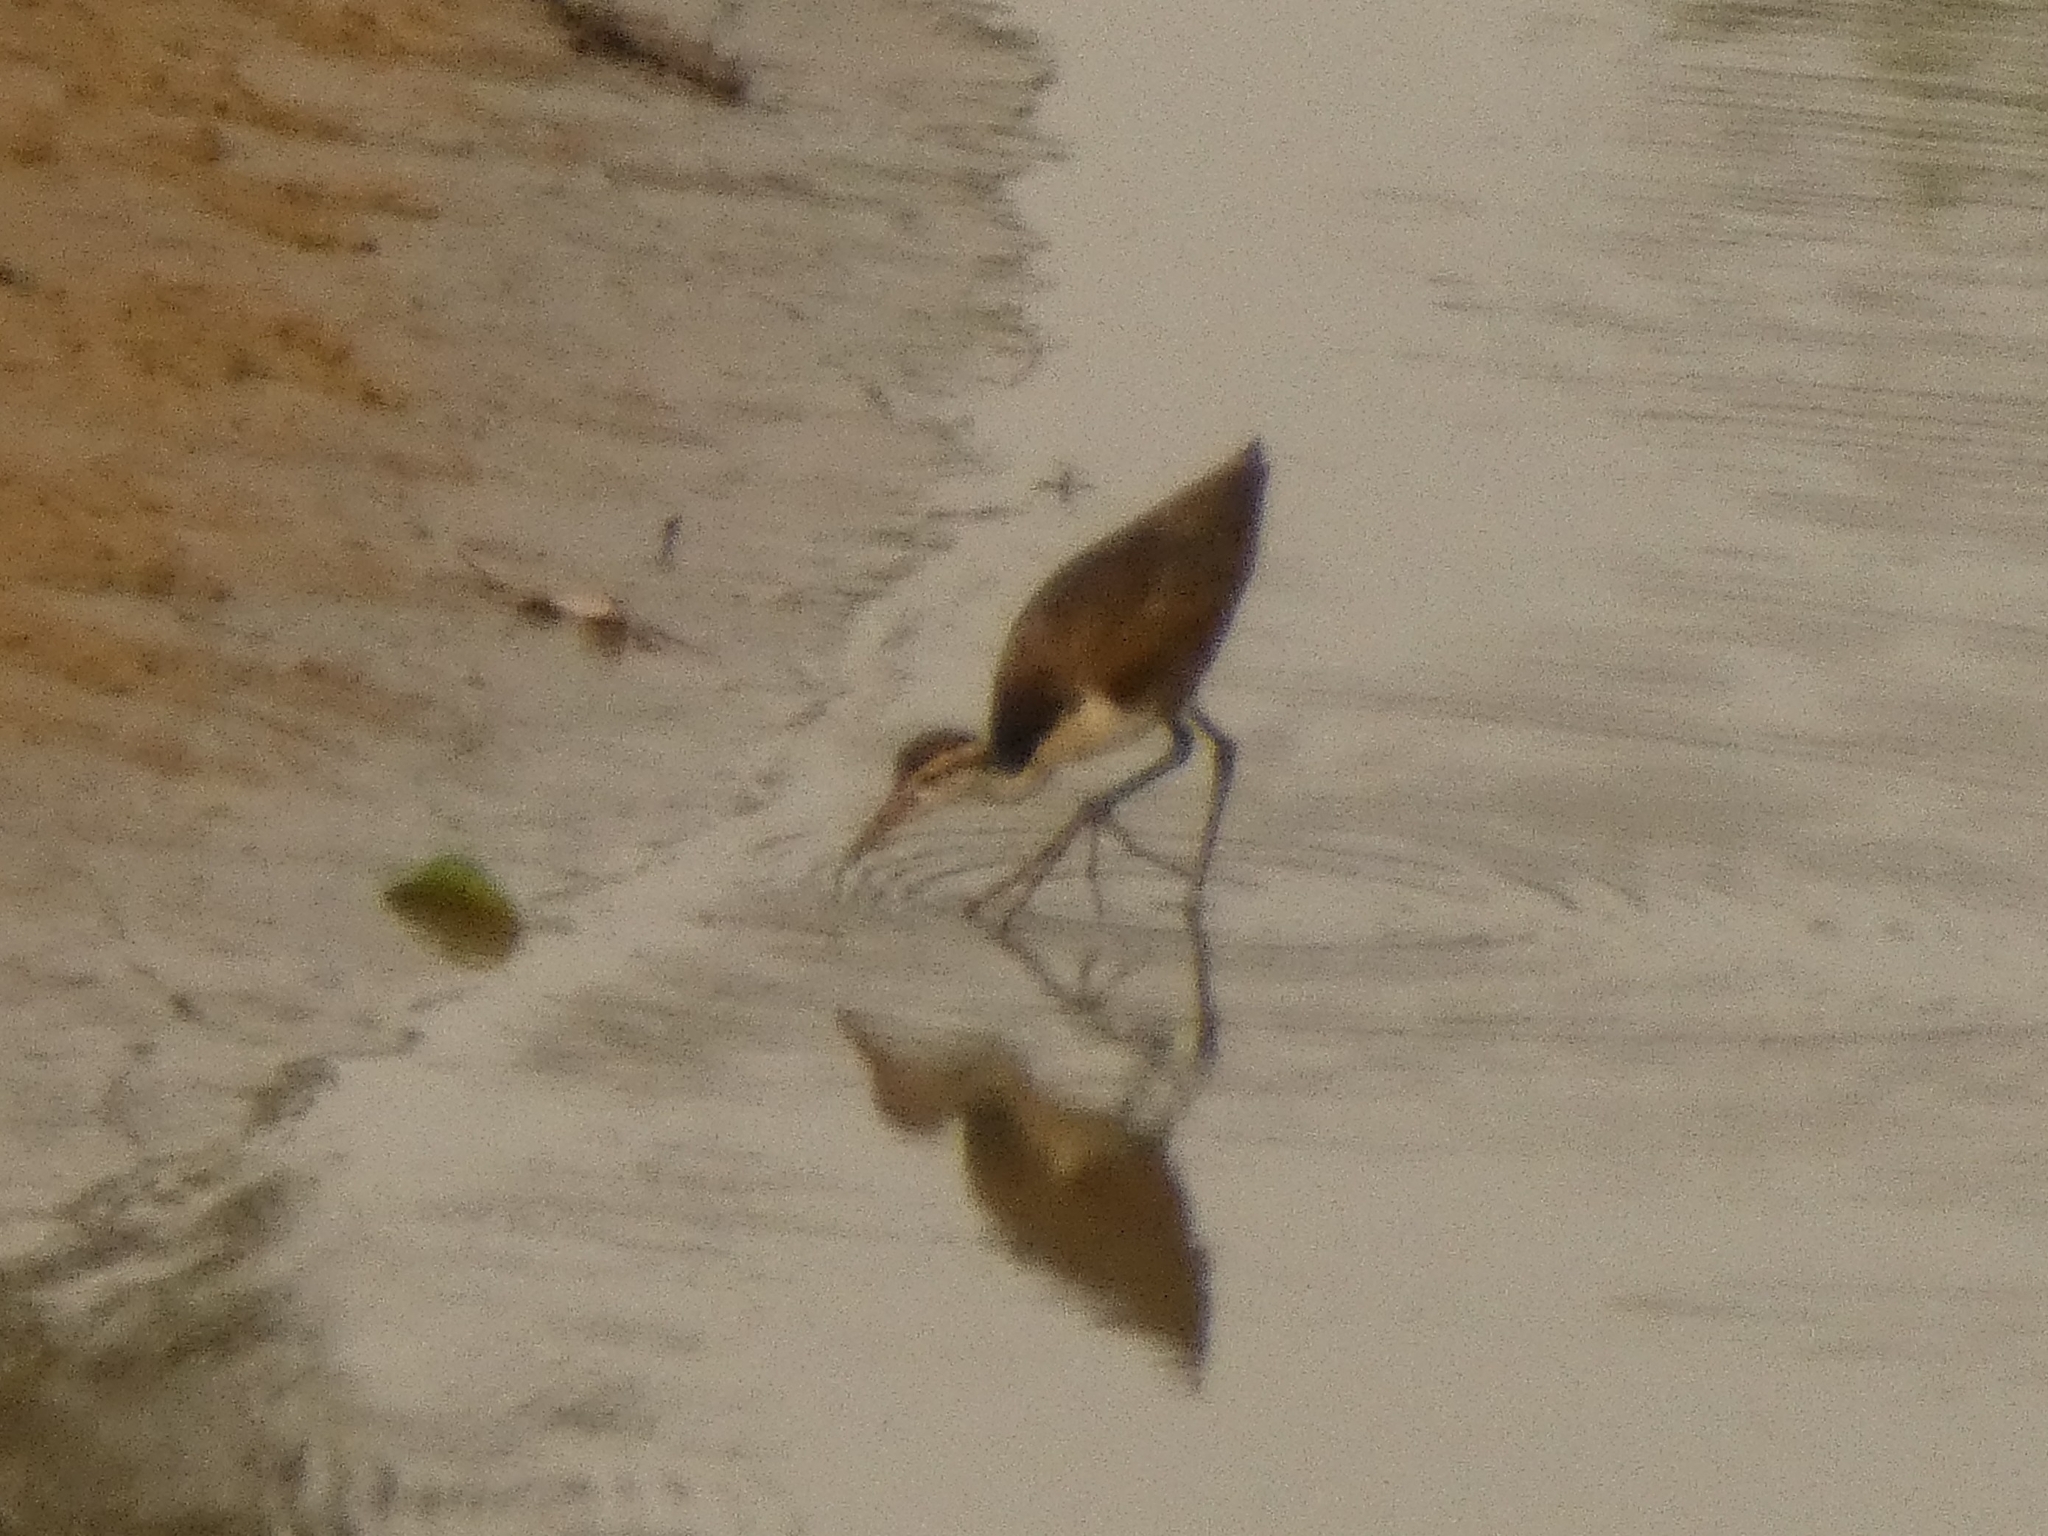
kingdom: Animalia
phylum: Chordata
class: Aves
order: Charadriiformes
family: Jacanidae
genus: Jacana
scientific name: Jacana jacana
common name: Wattled jacana
